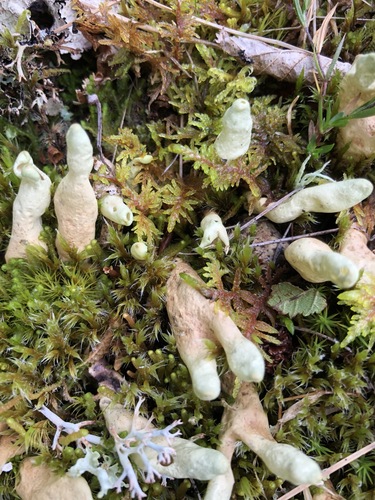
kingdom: Fungi
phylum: Ascomycota
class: Lecanoromycetes
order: Lecanorales
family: Parmeliaceae
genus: Dactylina
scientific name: Dactylina arctica
